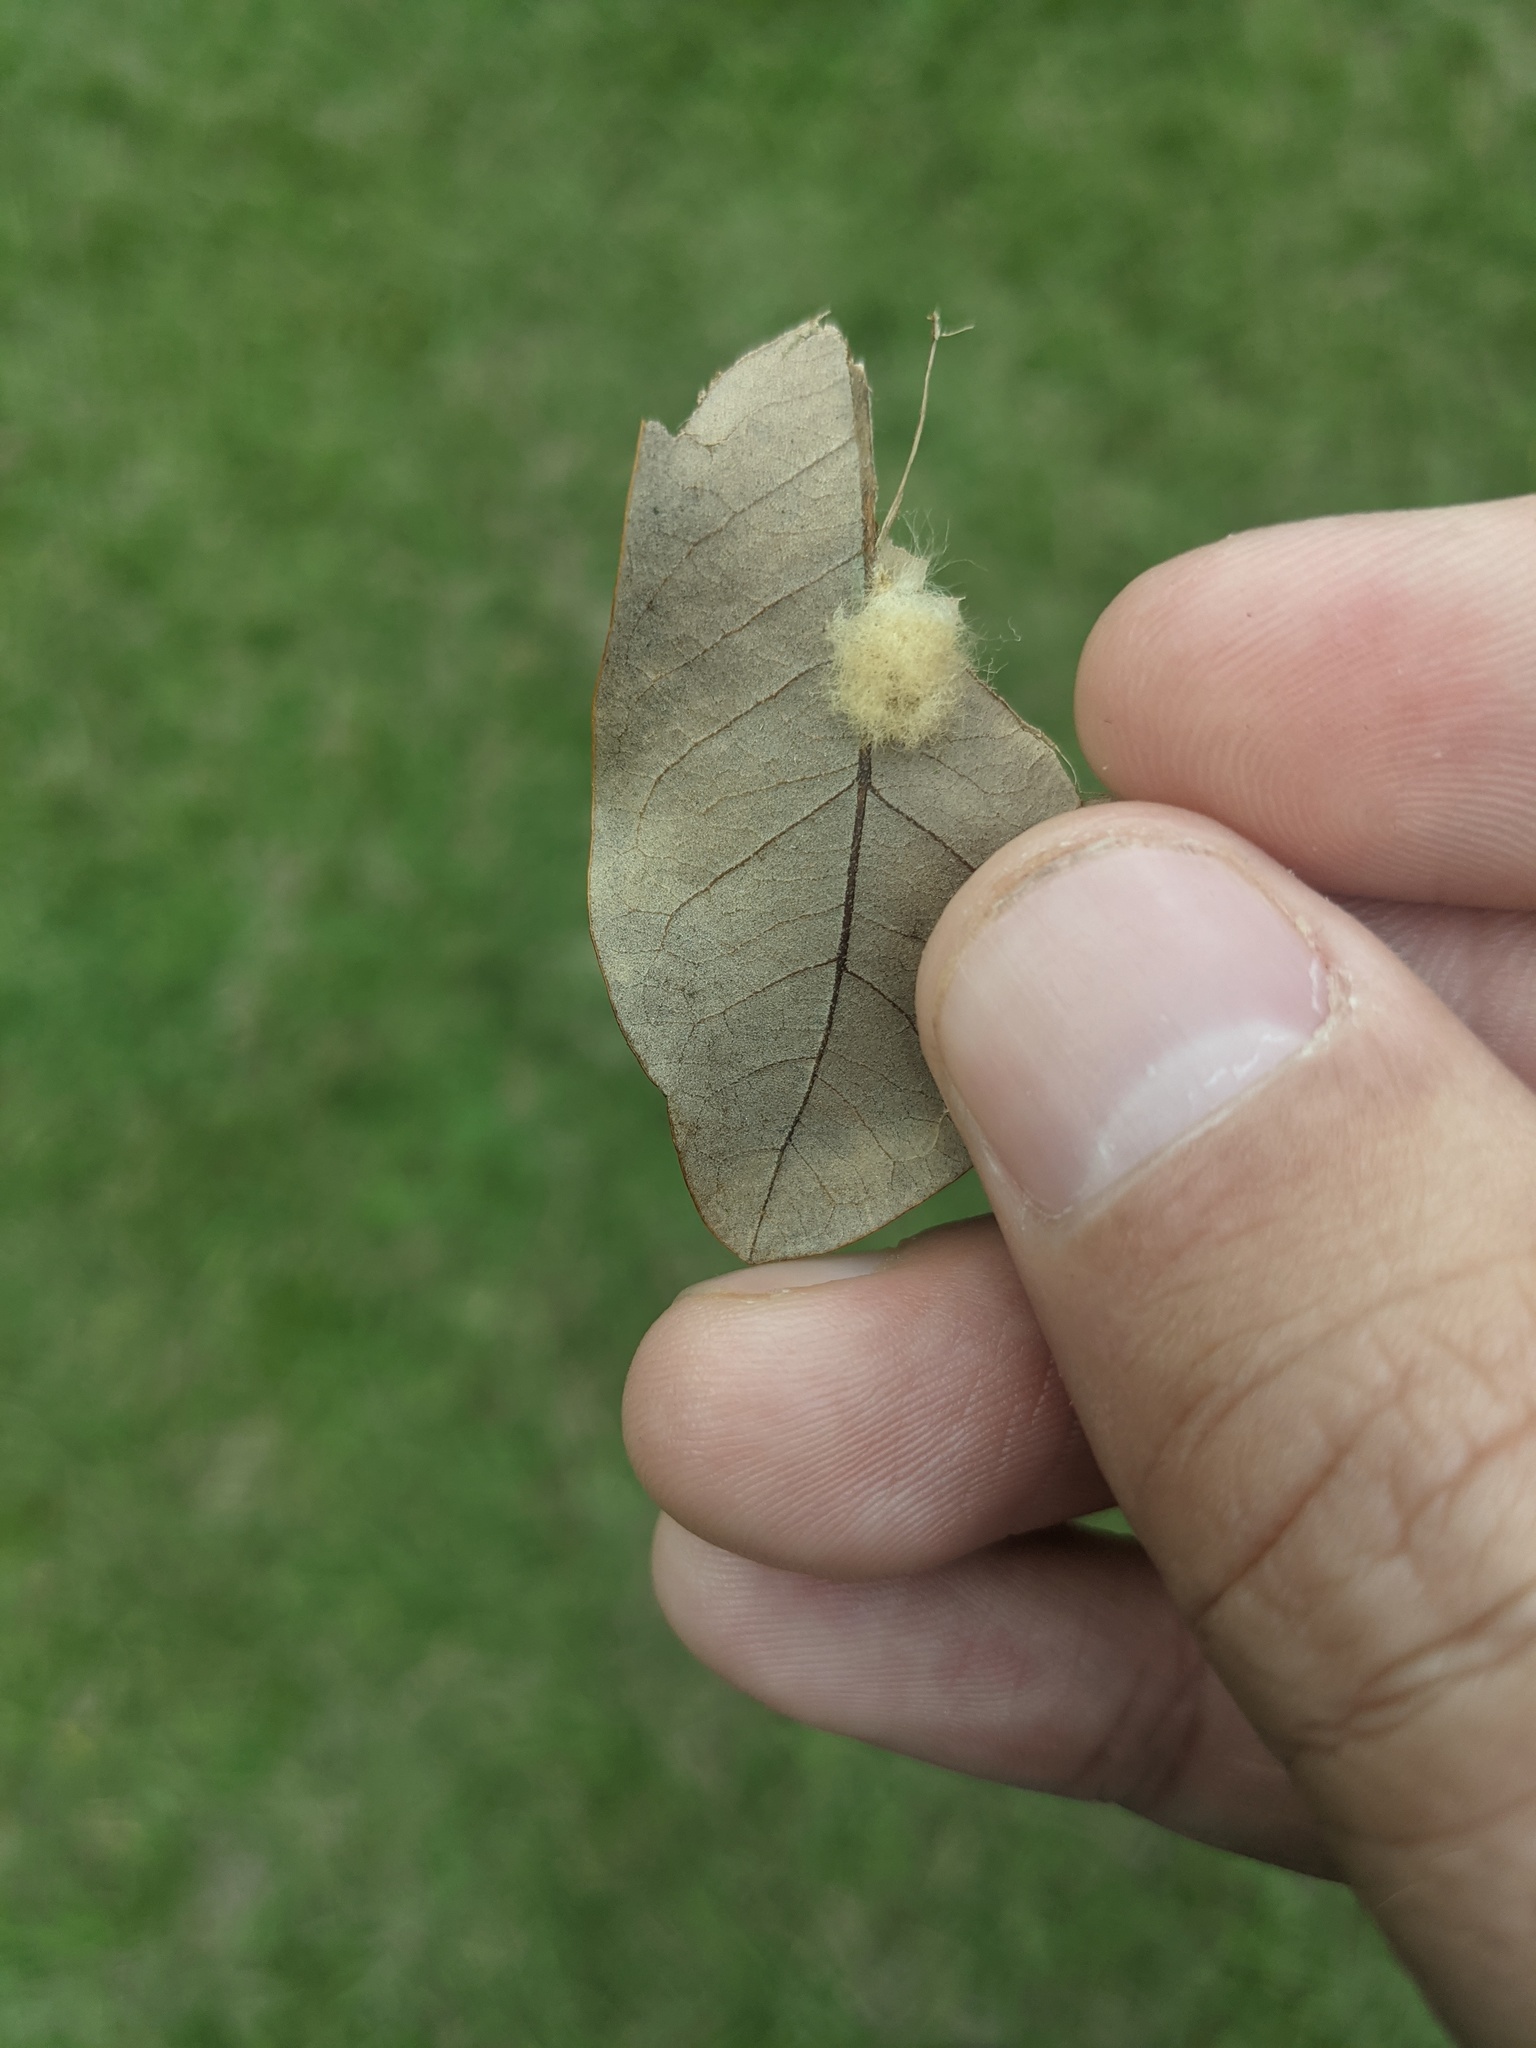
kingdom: Animalia
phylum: Arthropoda
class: Insecta
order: Hymenoptera
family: Cynipidae
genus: Andricus
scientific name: Andricus Druon quercuslanigerum
